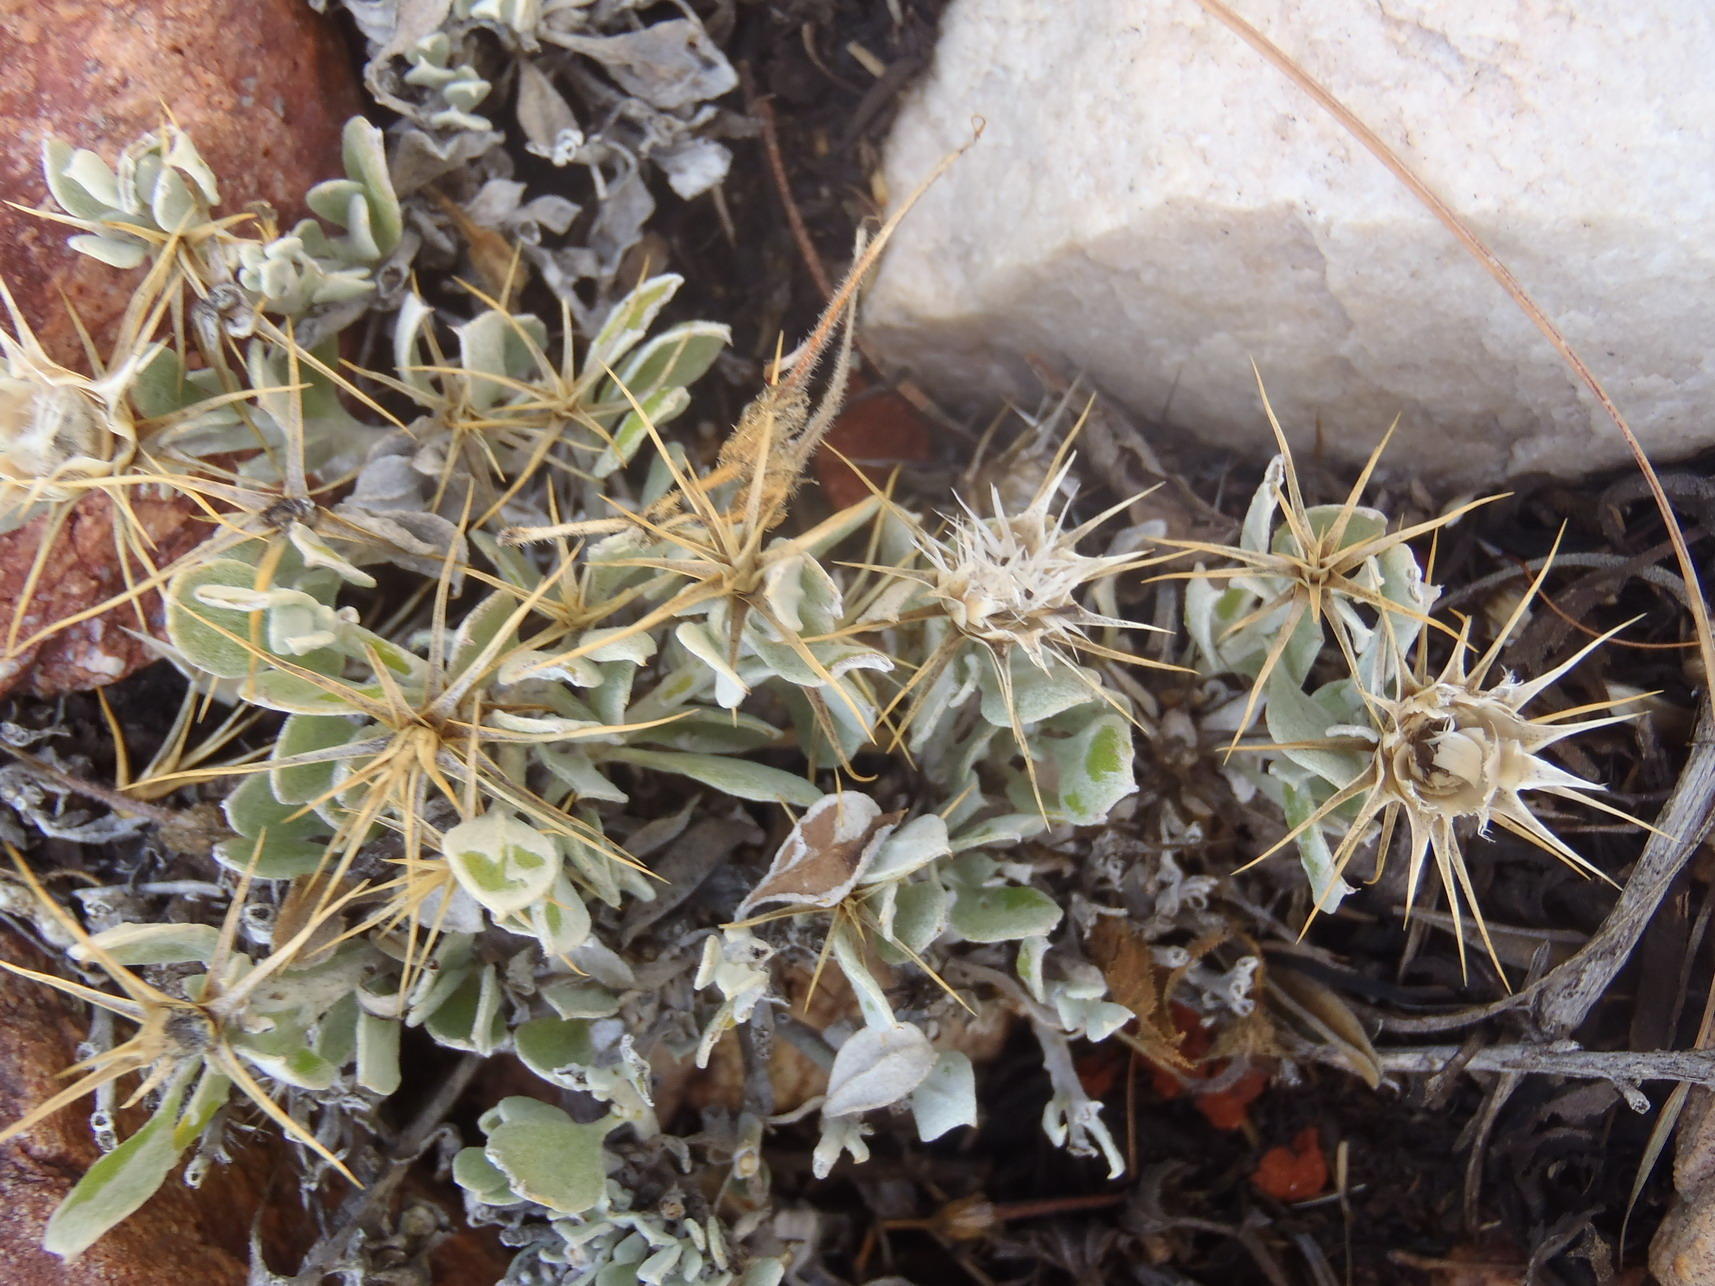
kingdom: Plantae
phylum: Tracheophyta
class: Magnoliopsida
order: Asterales
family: Asteraceae
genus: Macledium
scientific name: Macledium spinosum
